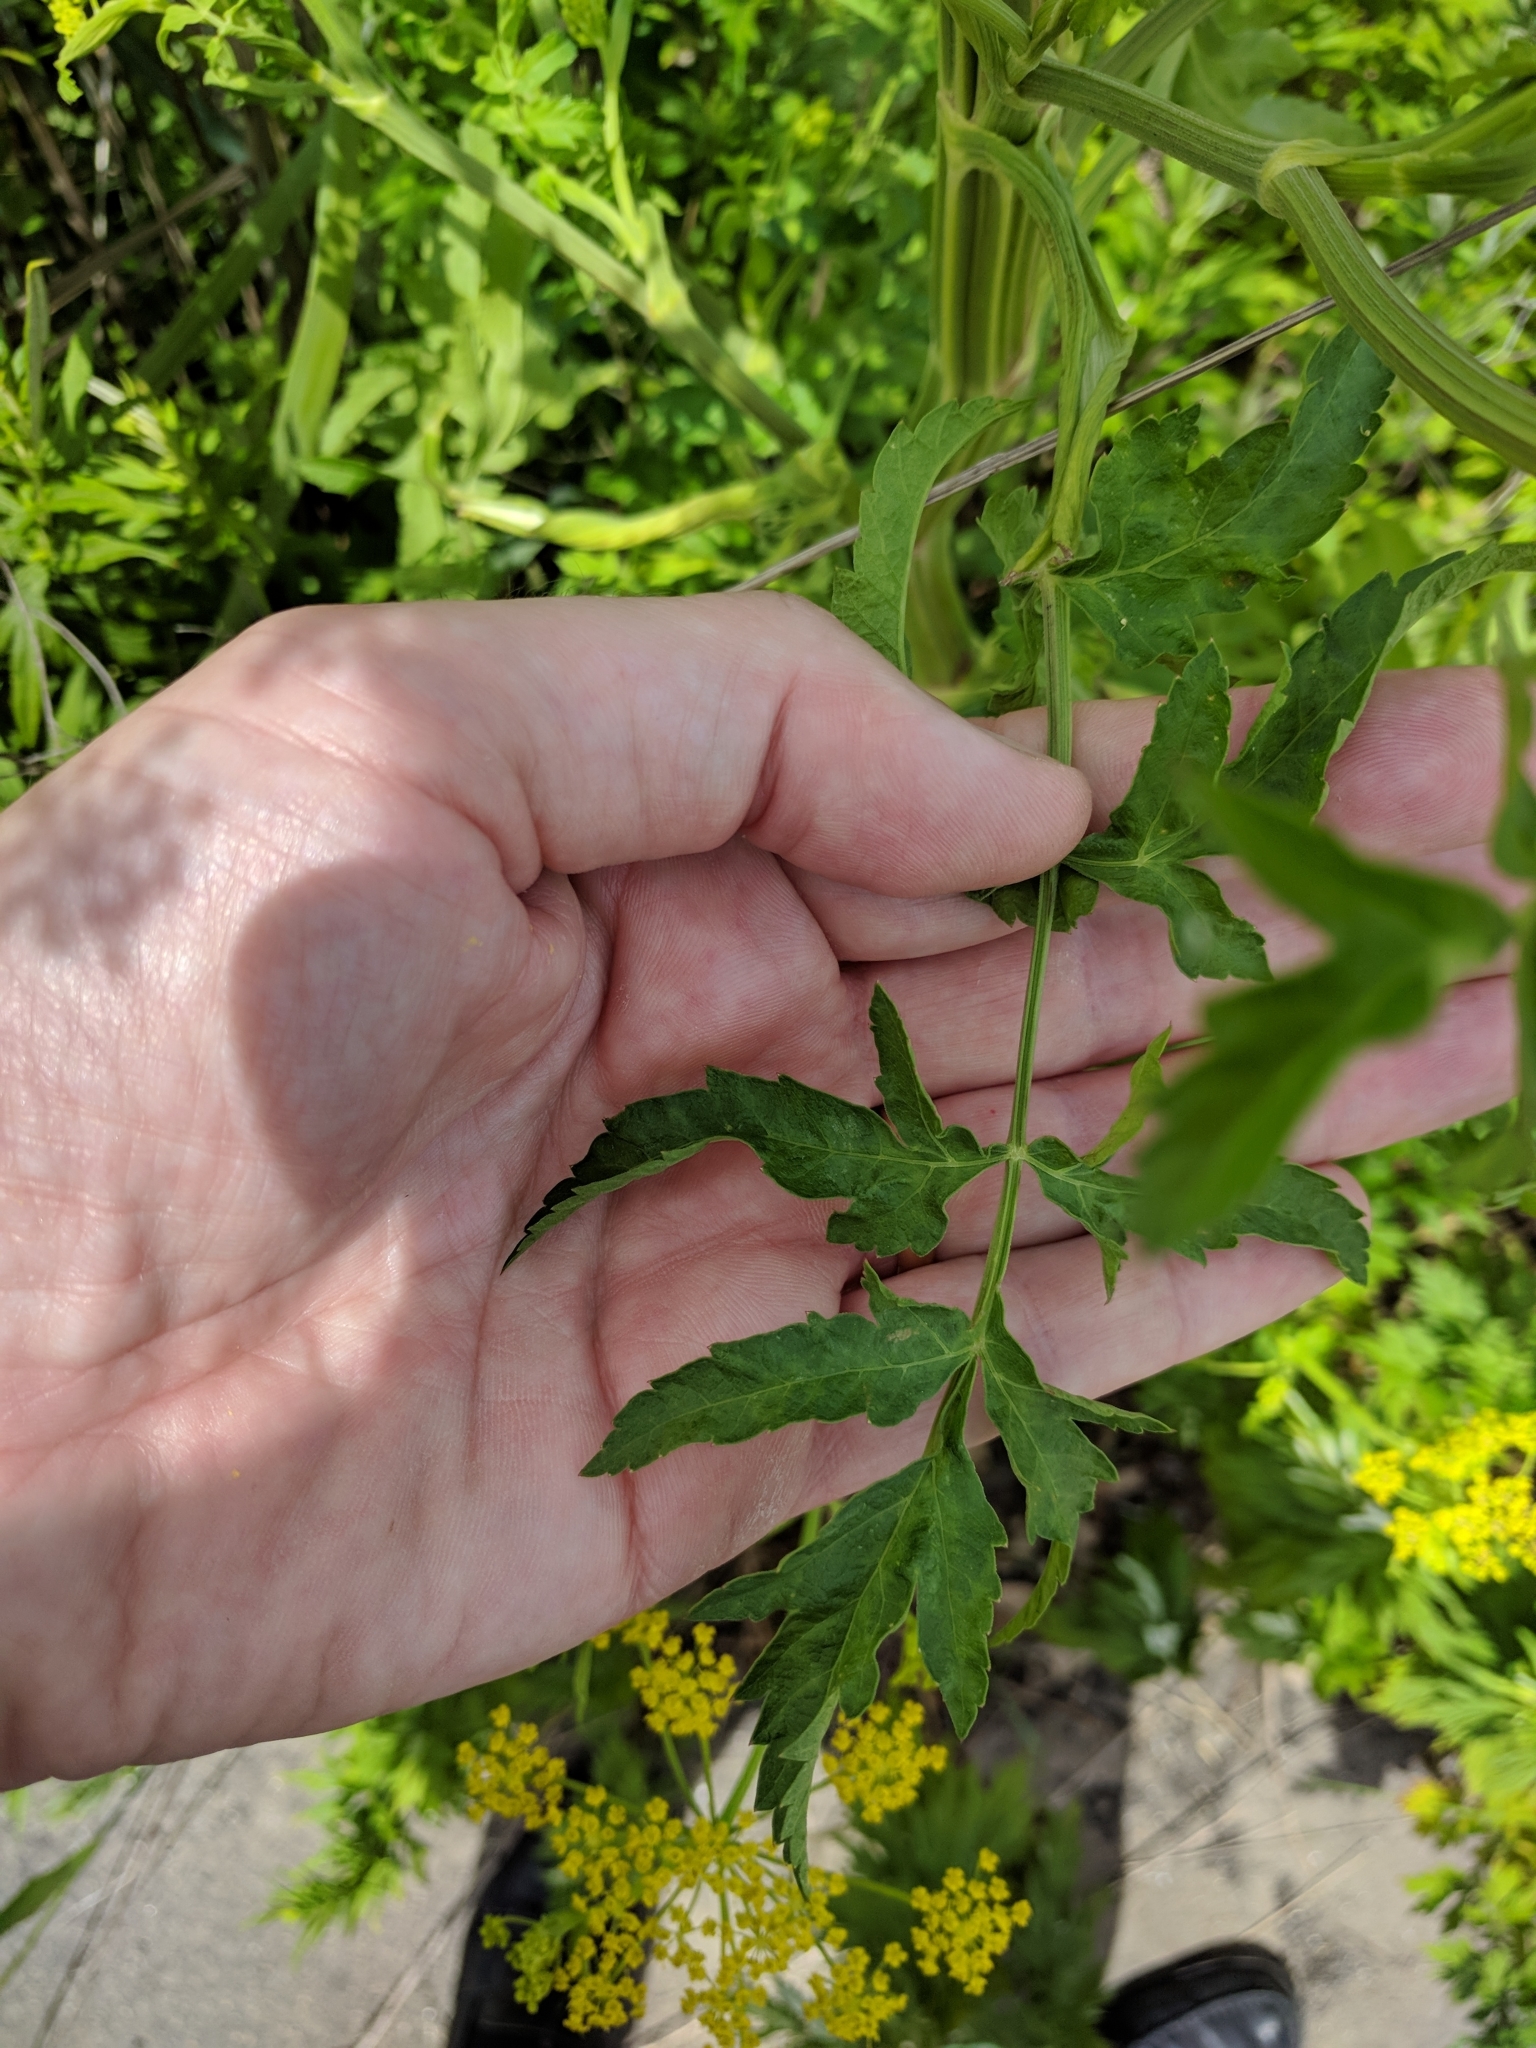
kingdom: Plantae
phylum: Tracheophyta
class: Magnoliopsida
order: Apiales
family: Apiaceae
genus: Zizia
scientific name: Zizia aurea
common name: Golden alexanders
